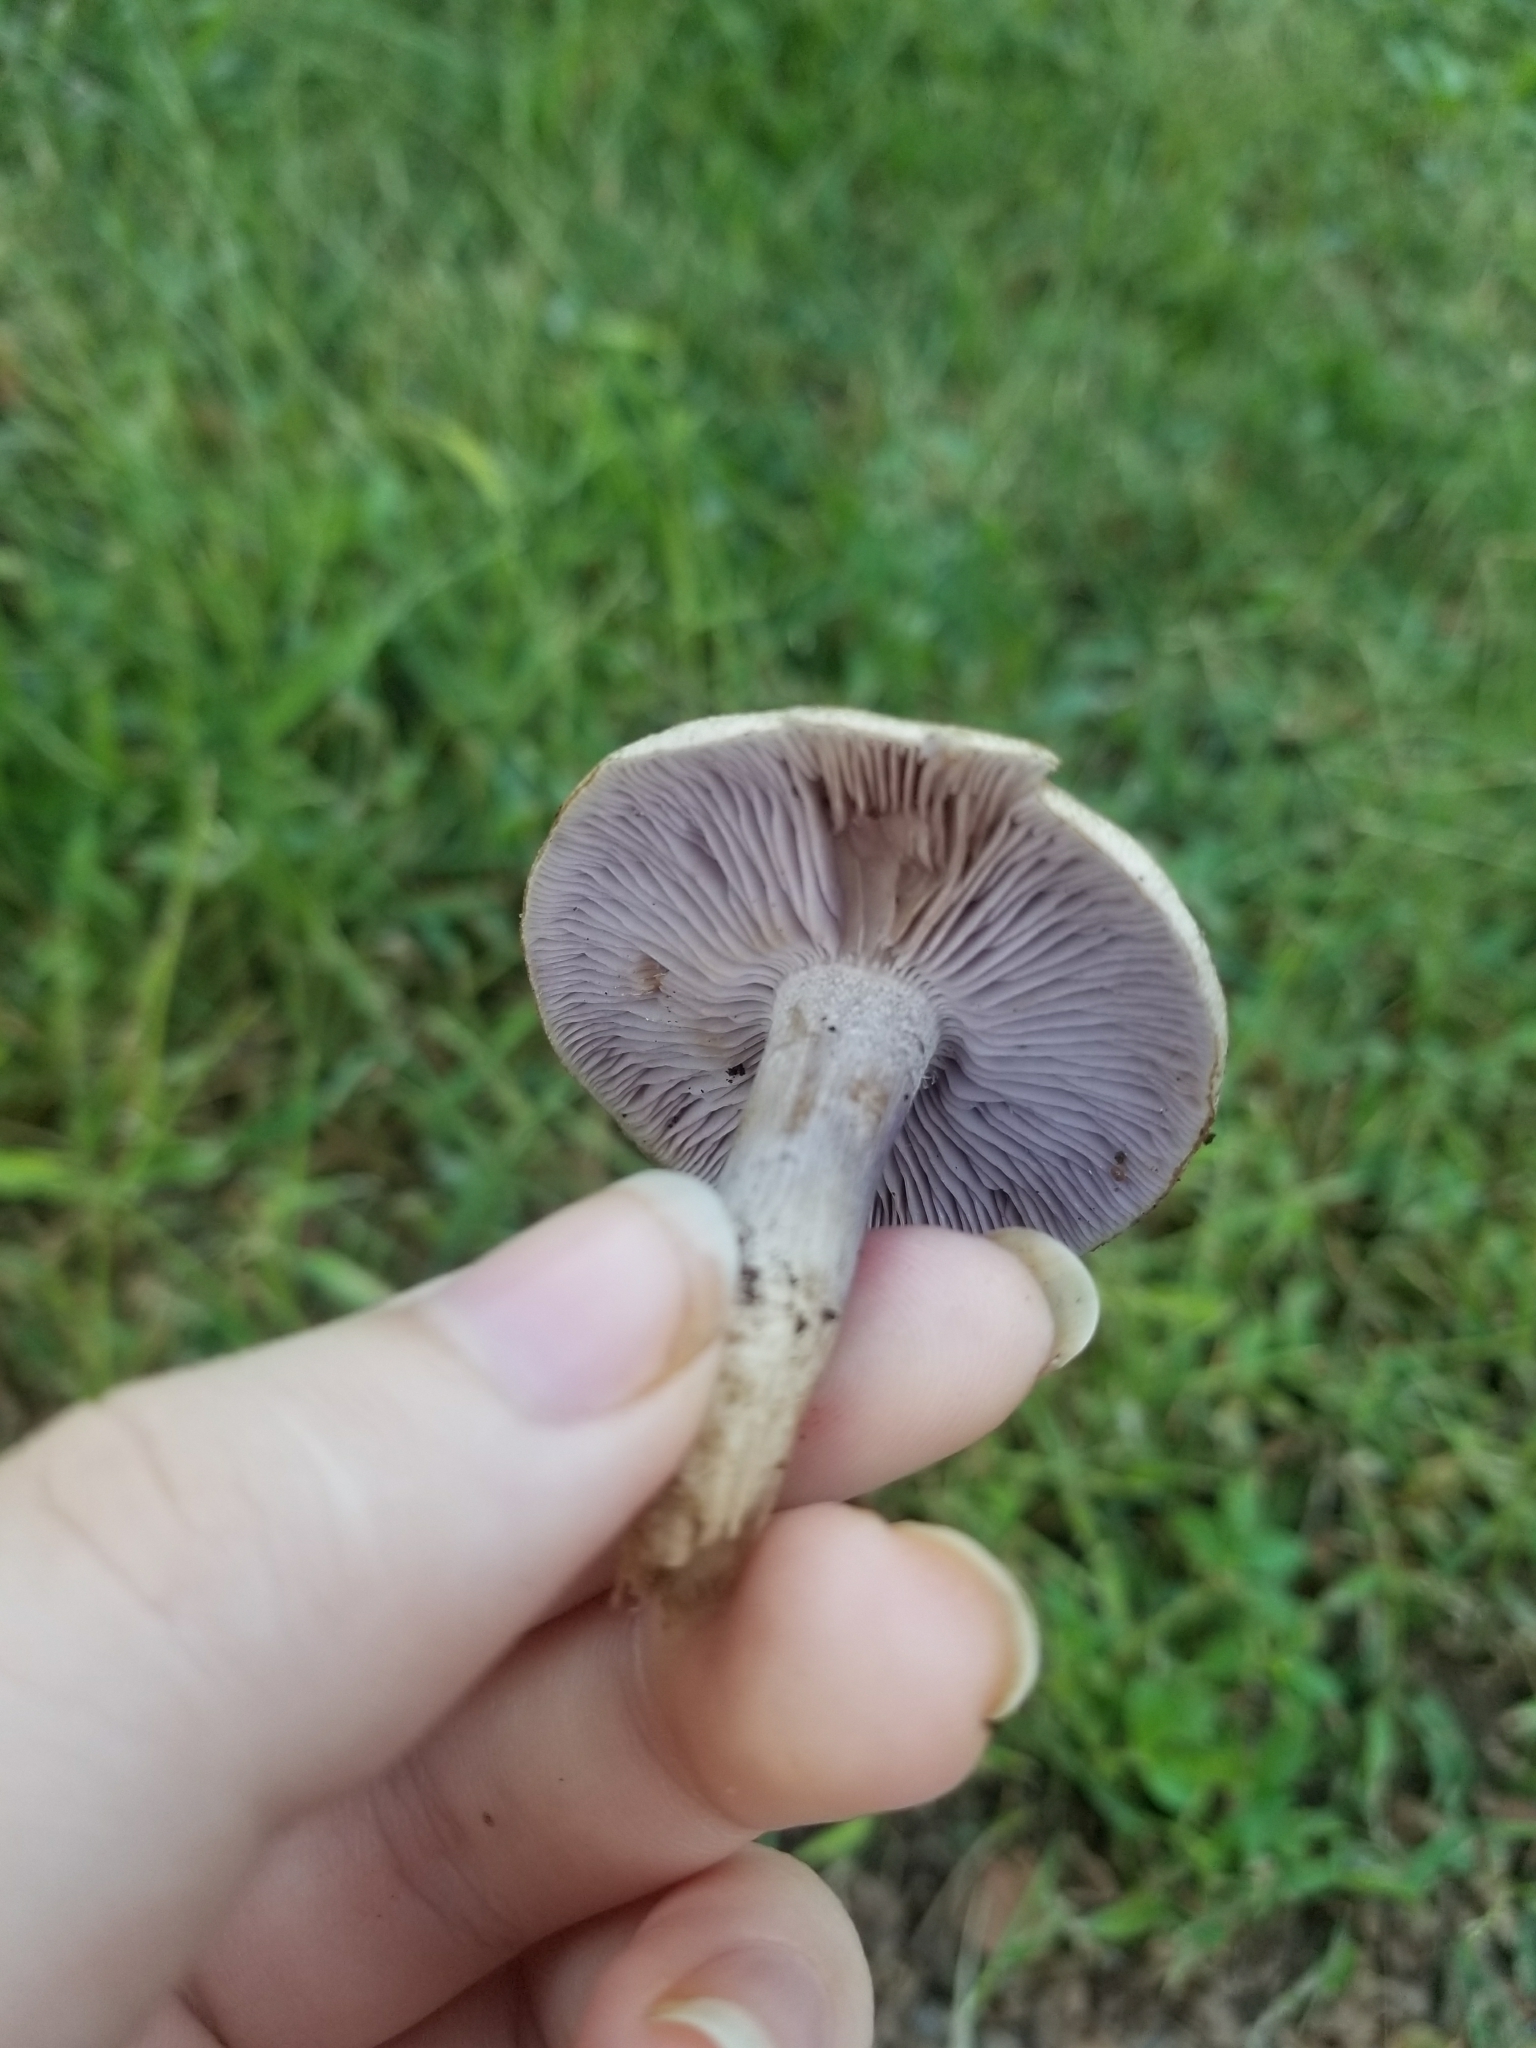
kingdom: Fungi
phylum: Basidiomycota
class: Agaricomycetes
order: Agaricales
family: Tricholomataceae
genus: Collybia
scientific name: Collybia
